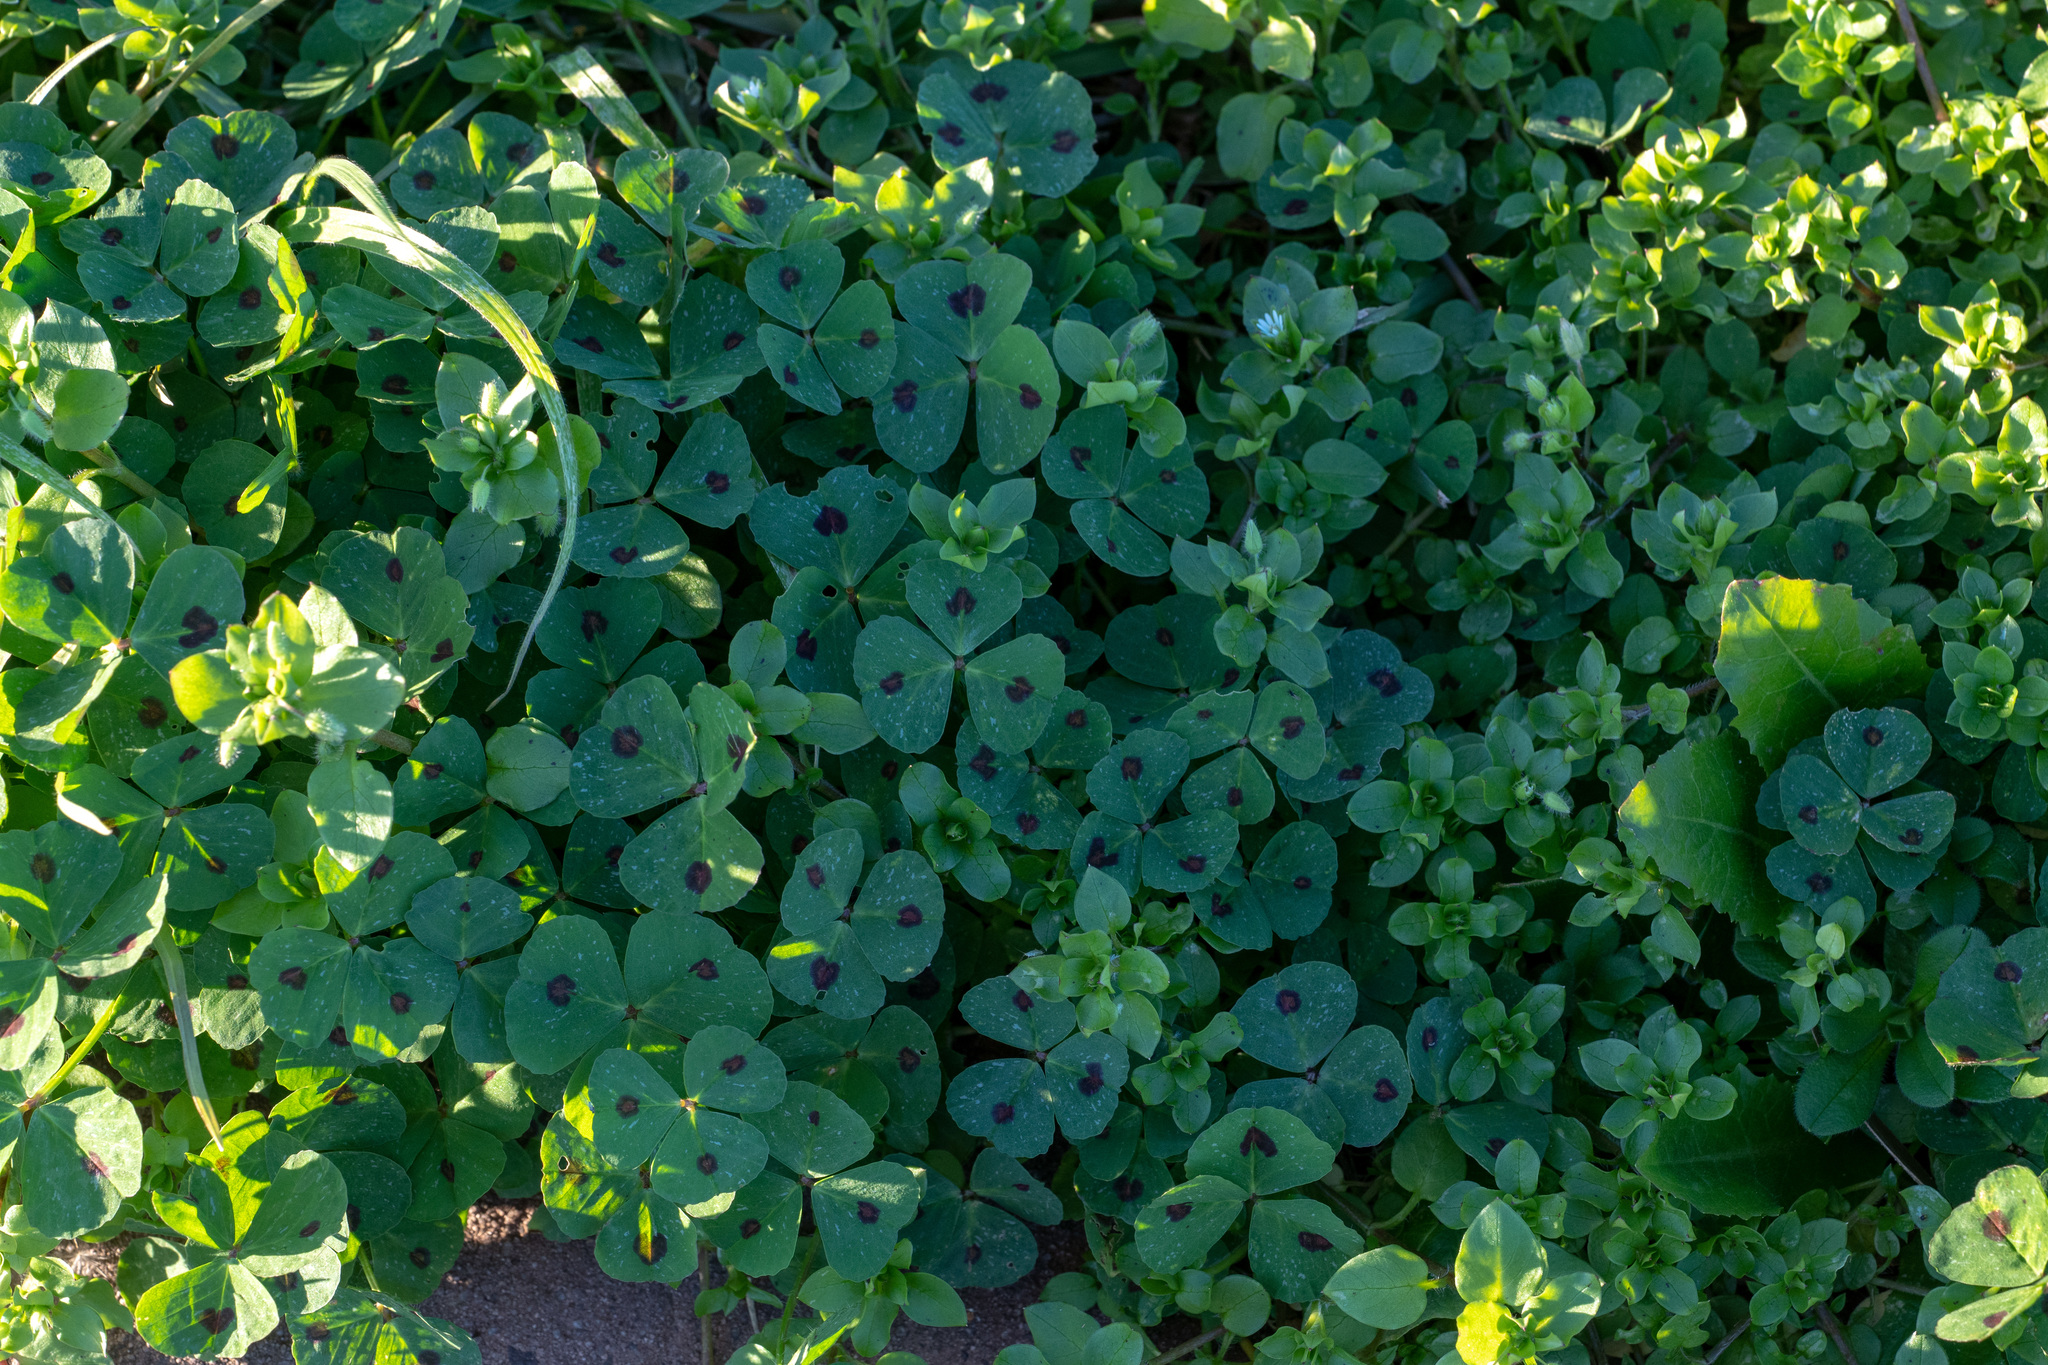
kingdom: Plantae
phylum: Tracheophyta
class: Magnoliopsida
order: Fabales
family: Fabaceae
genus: Medicago
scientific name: Medicago arabica
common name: Spotted medick
